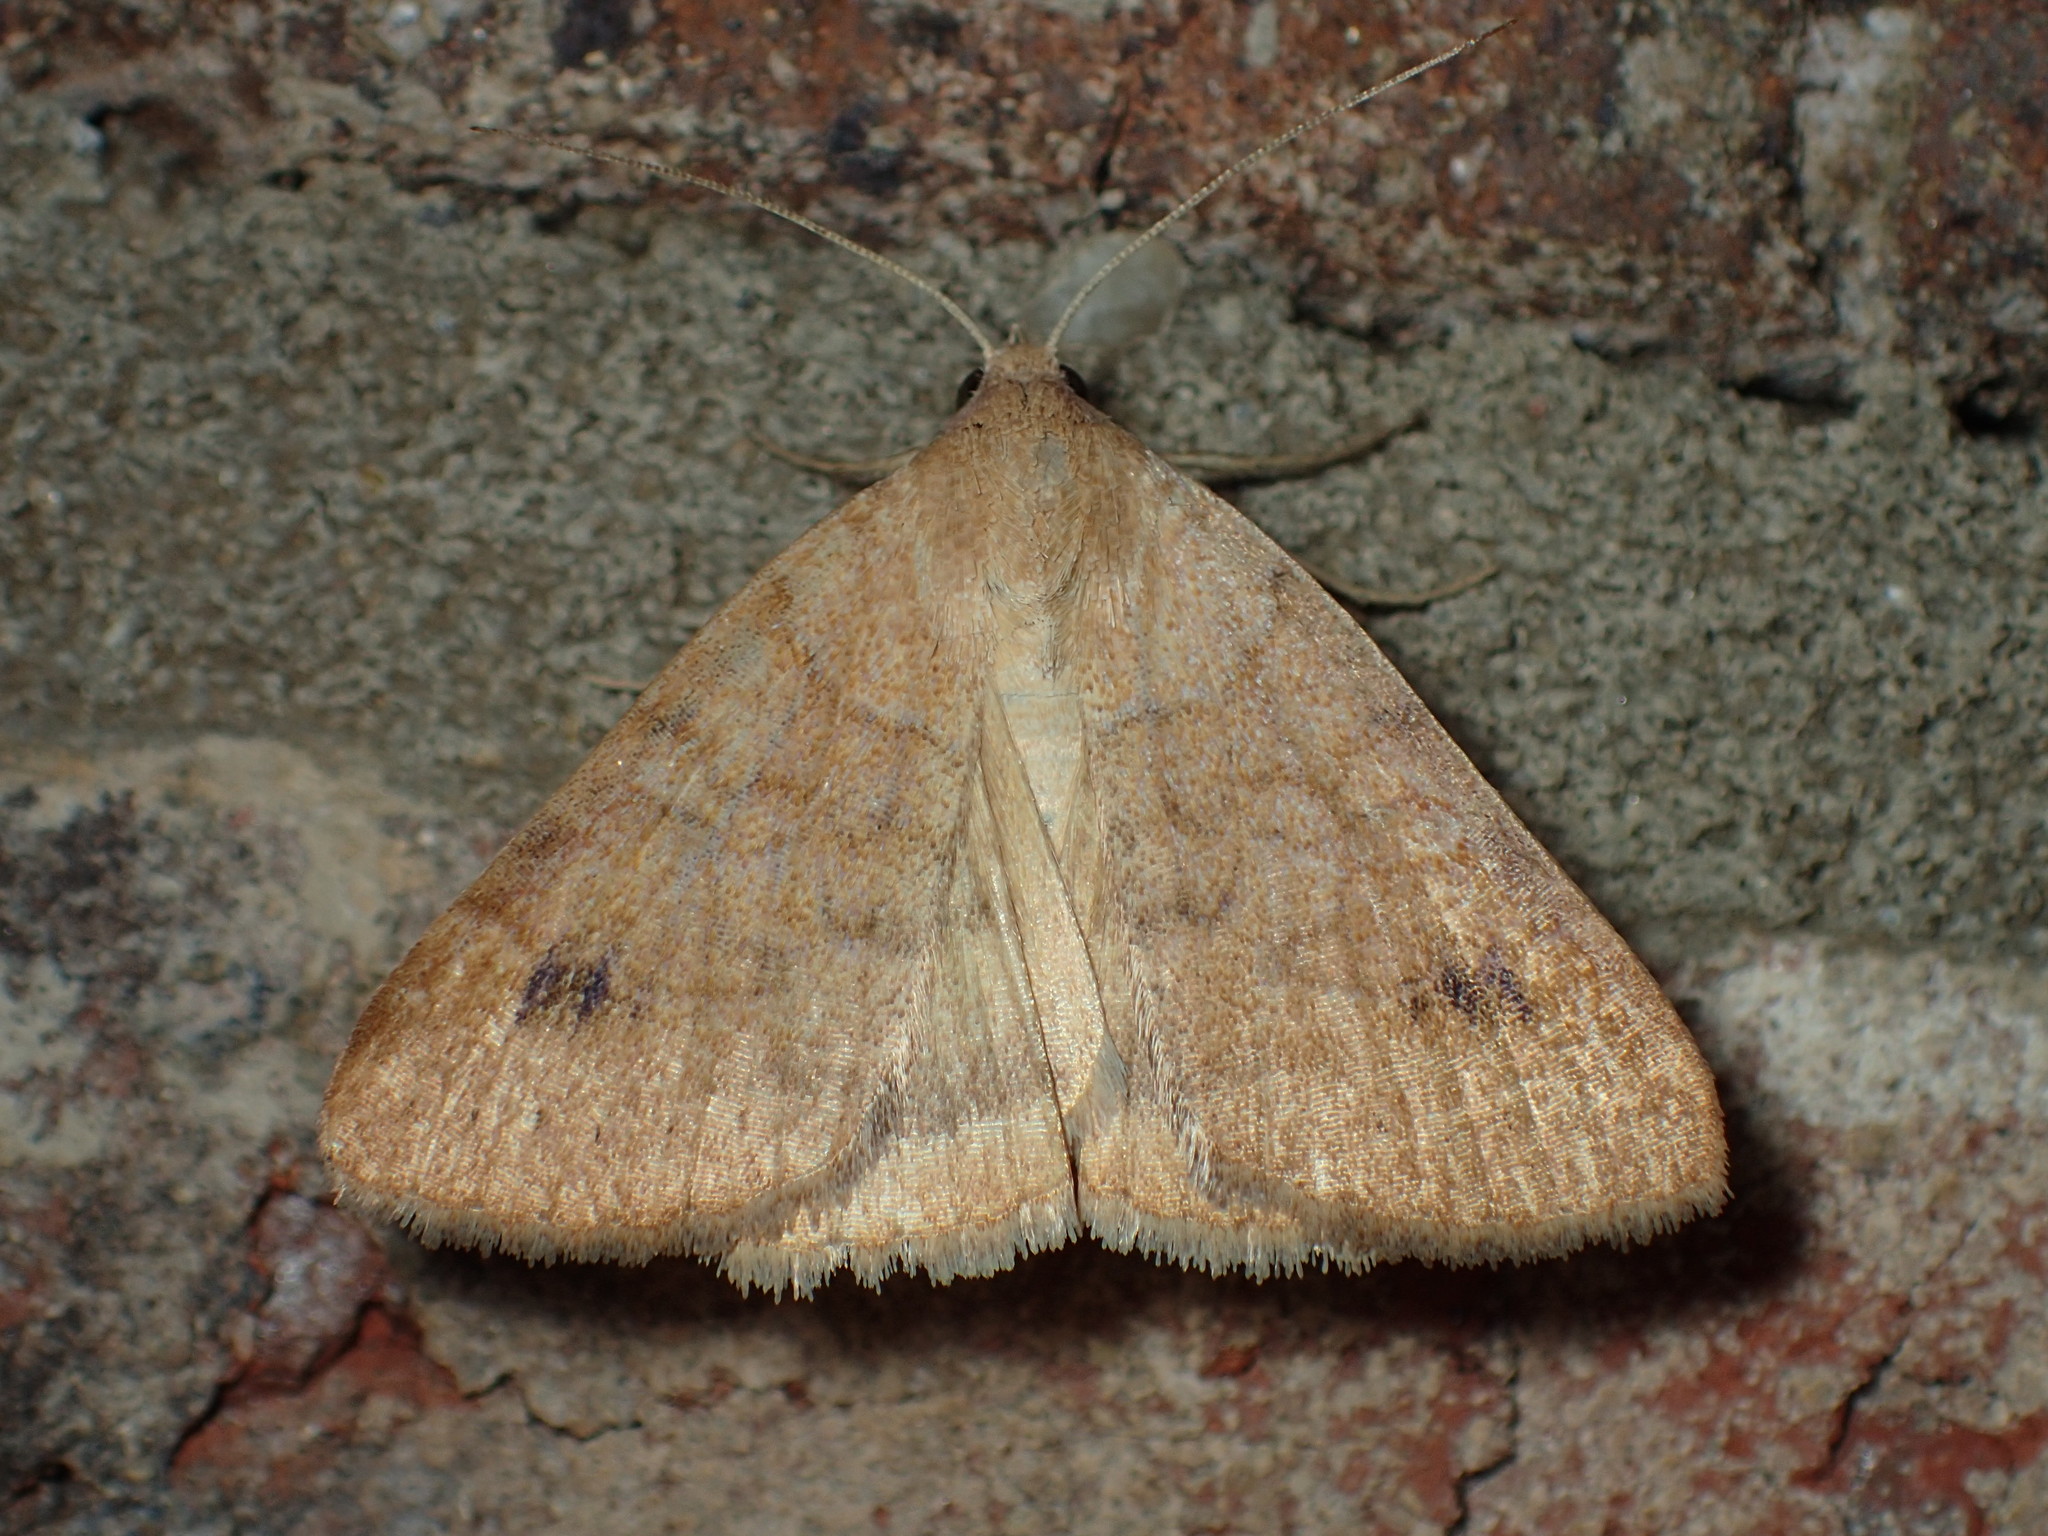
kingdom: Animalia
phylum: Arthropoda
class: Insecta
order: Lepidoptera
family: Erebidae
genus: Caenurgia
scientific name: Caenurgia chloropha
